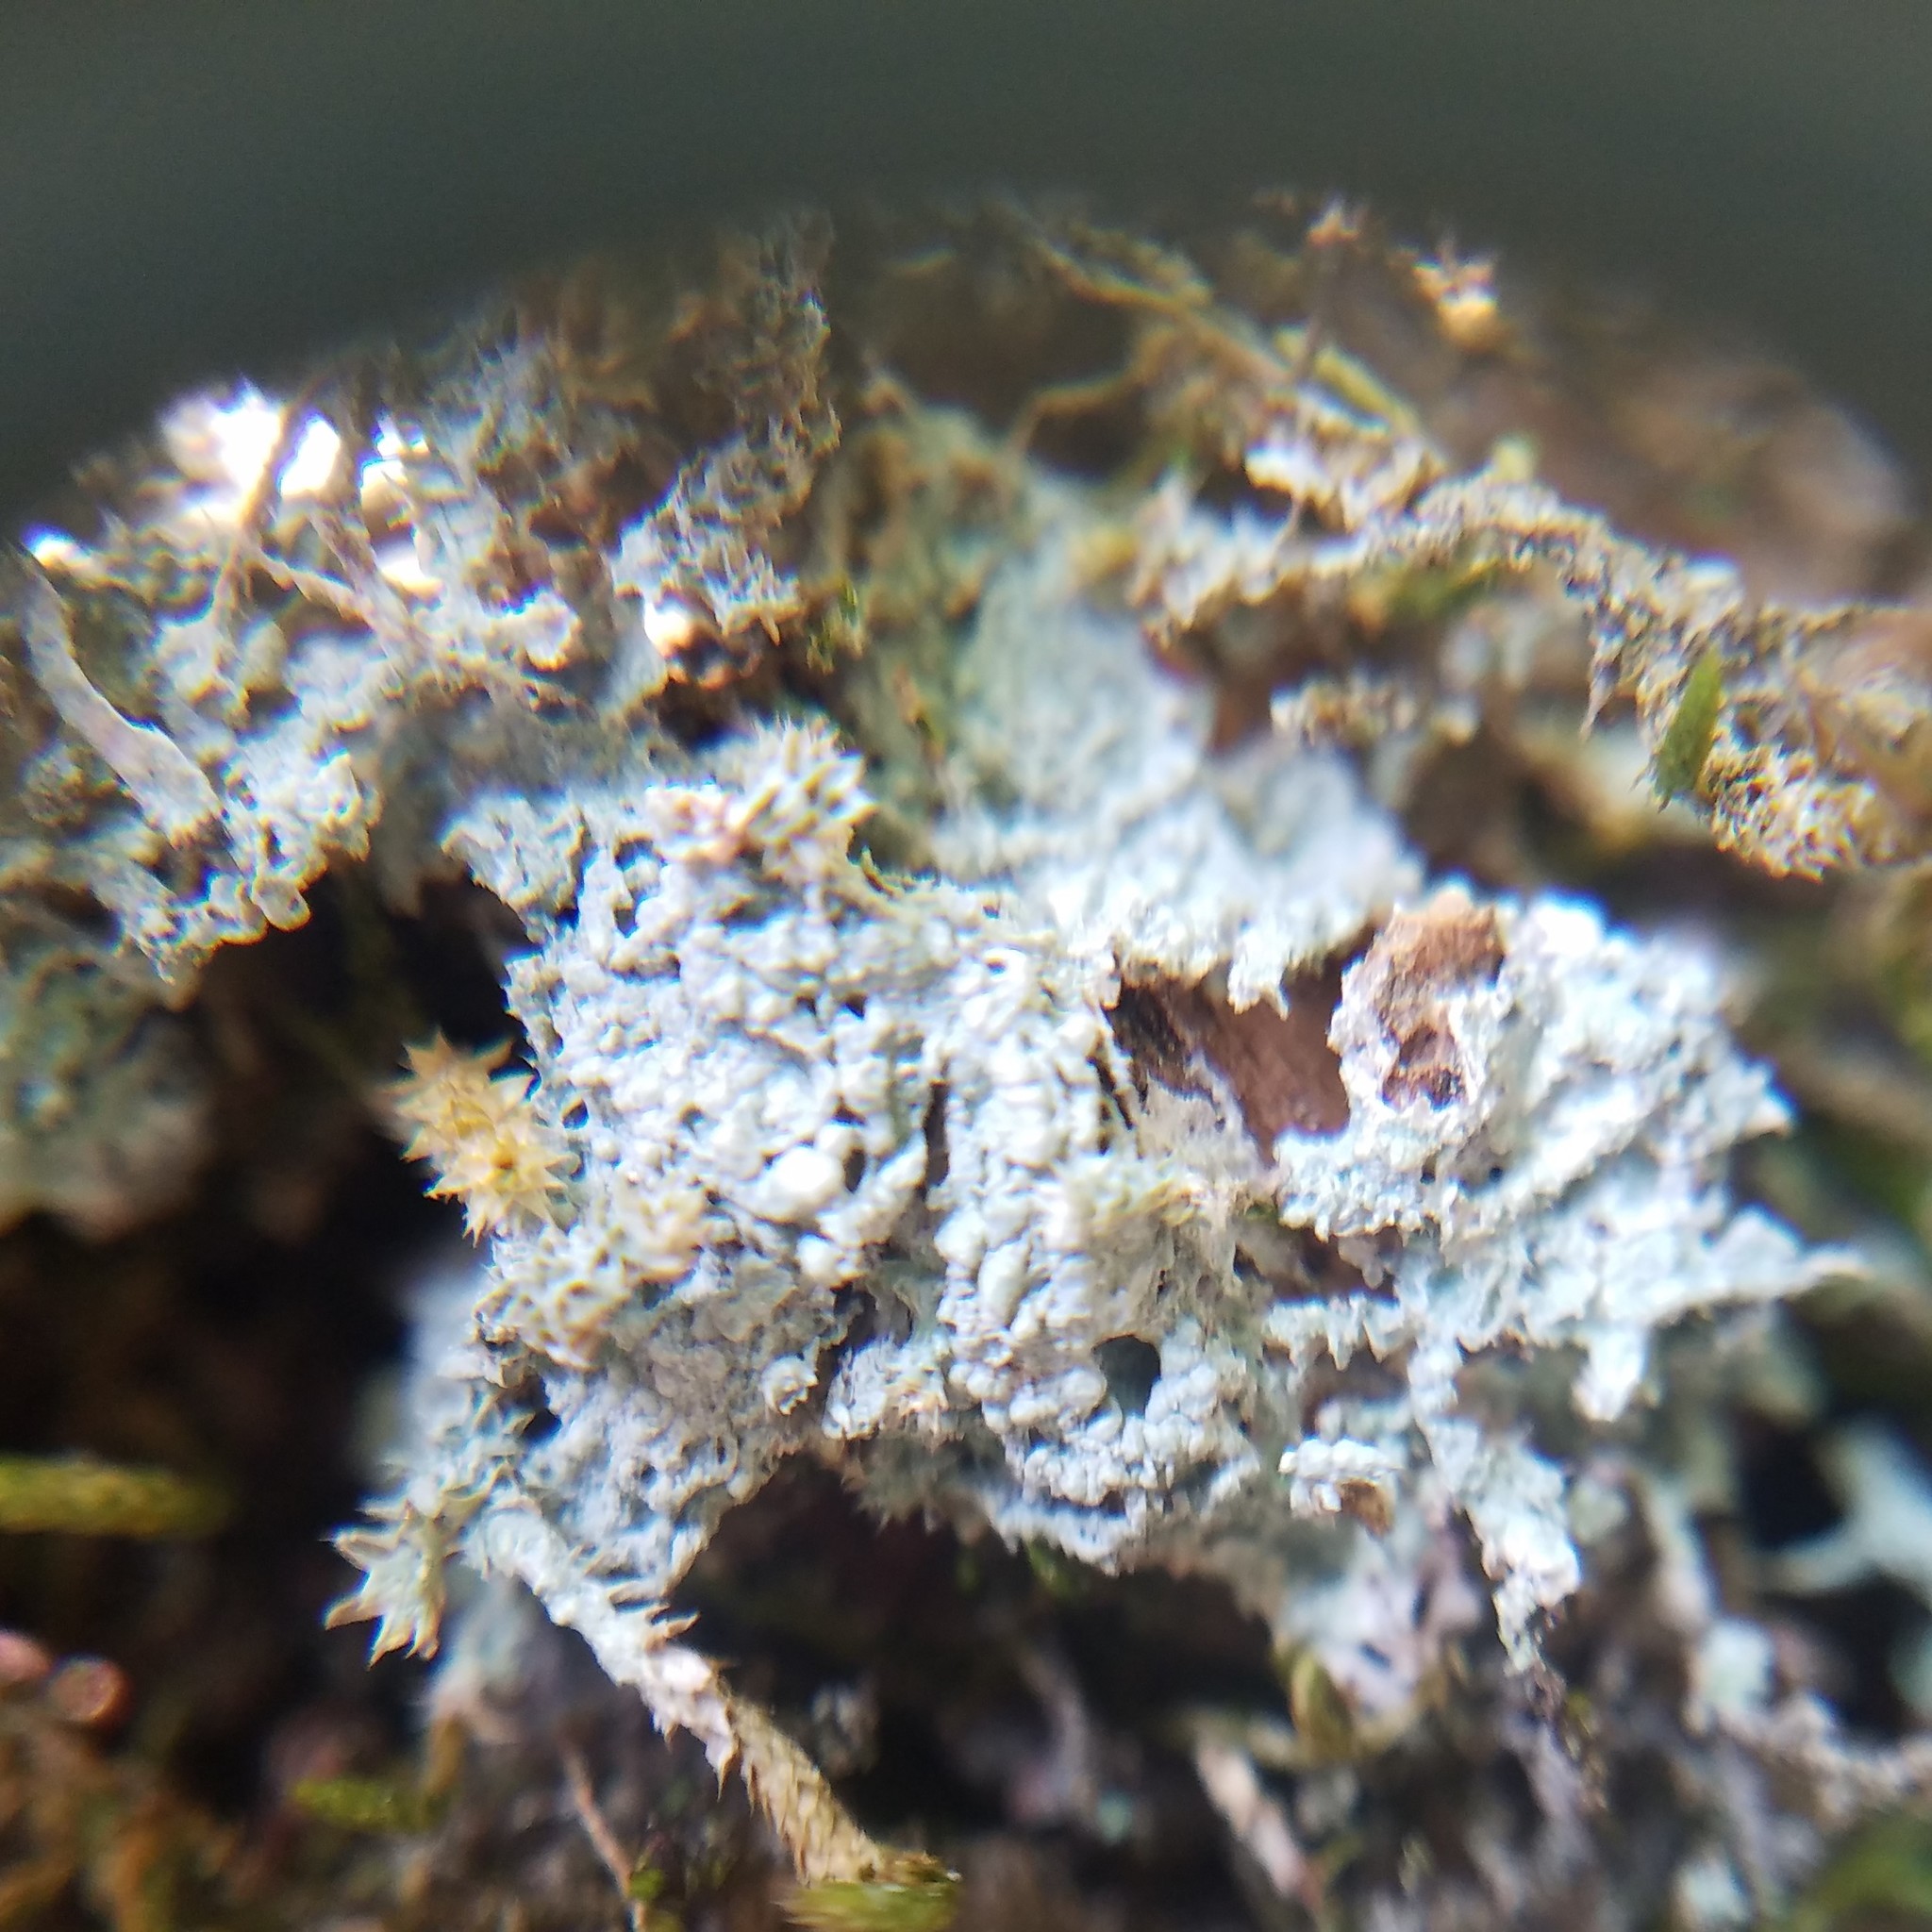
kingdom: Fungi
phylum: Ascomycota
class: Lecanoromycetes
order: Pertusariales
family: Pertusariaceae
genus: Pertusaria
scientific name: Pertusaria ostiolata
